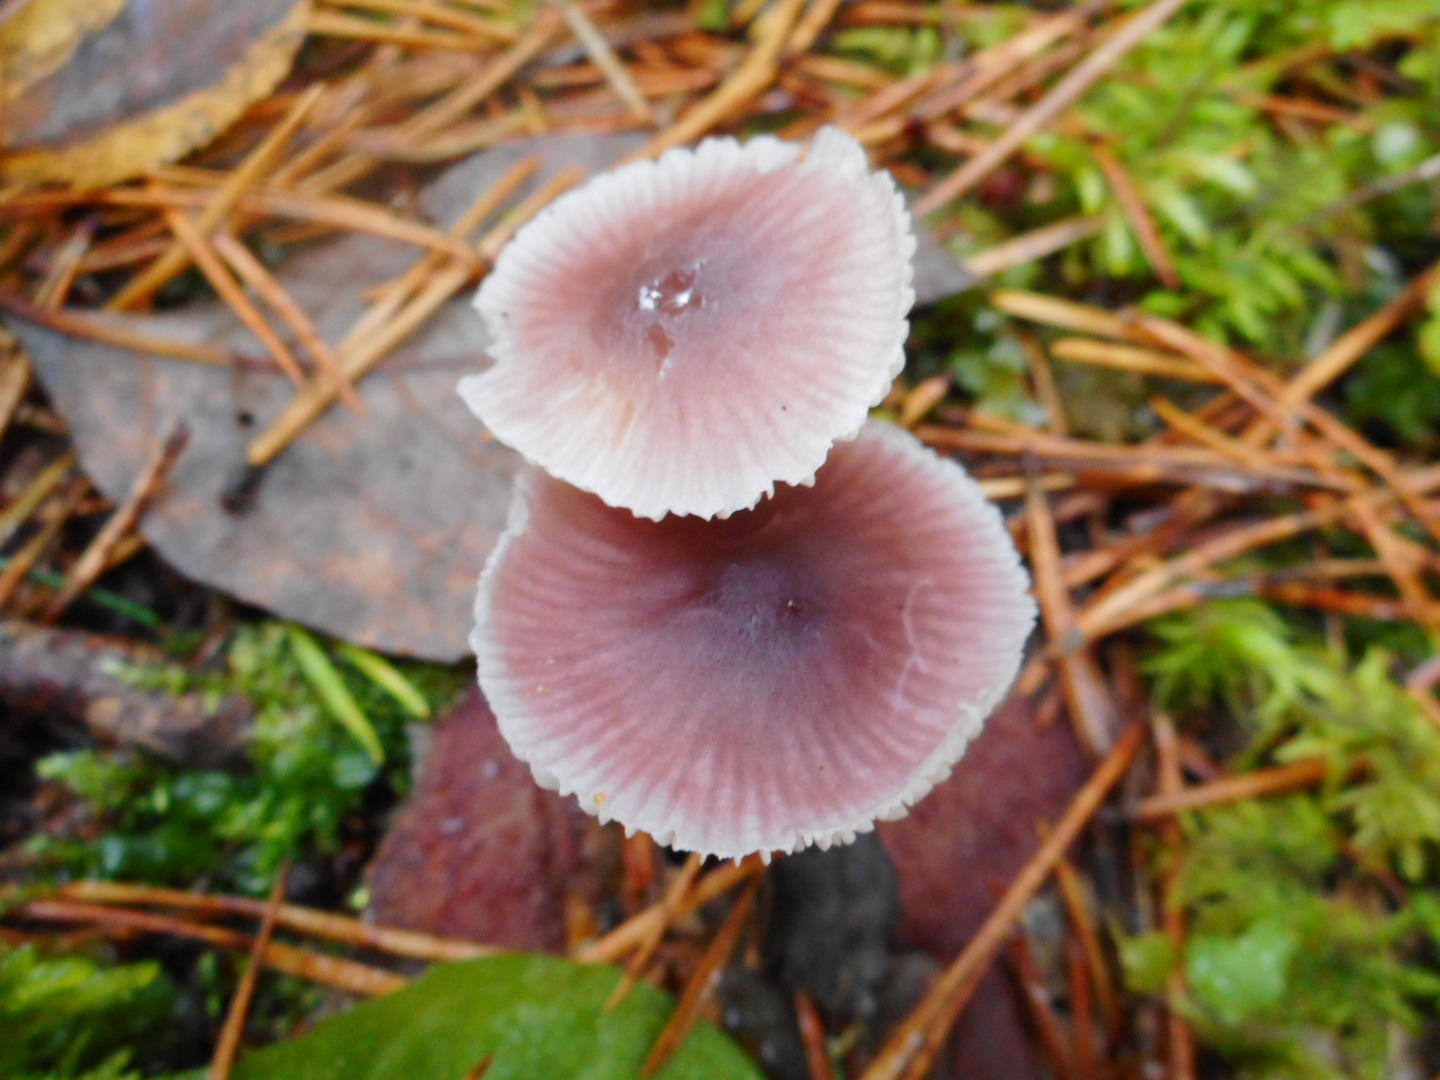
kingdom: Fungi
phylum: Basidiomycota
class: Agaricomycetes
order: Agaricales
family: Mycenaceae
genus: Mycena
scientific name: Mycena pura
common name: Lilac bonnet
